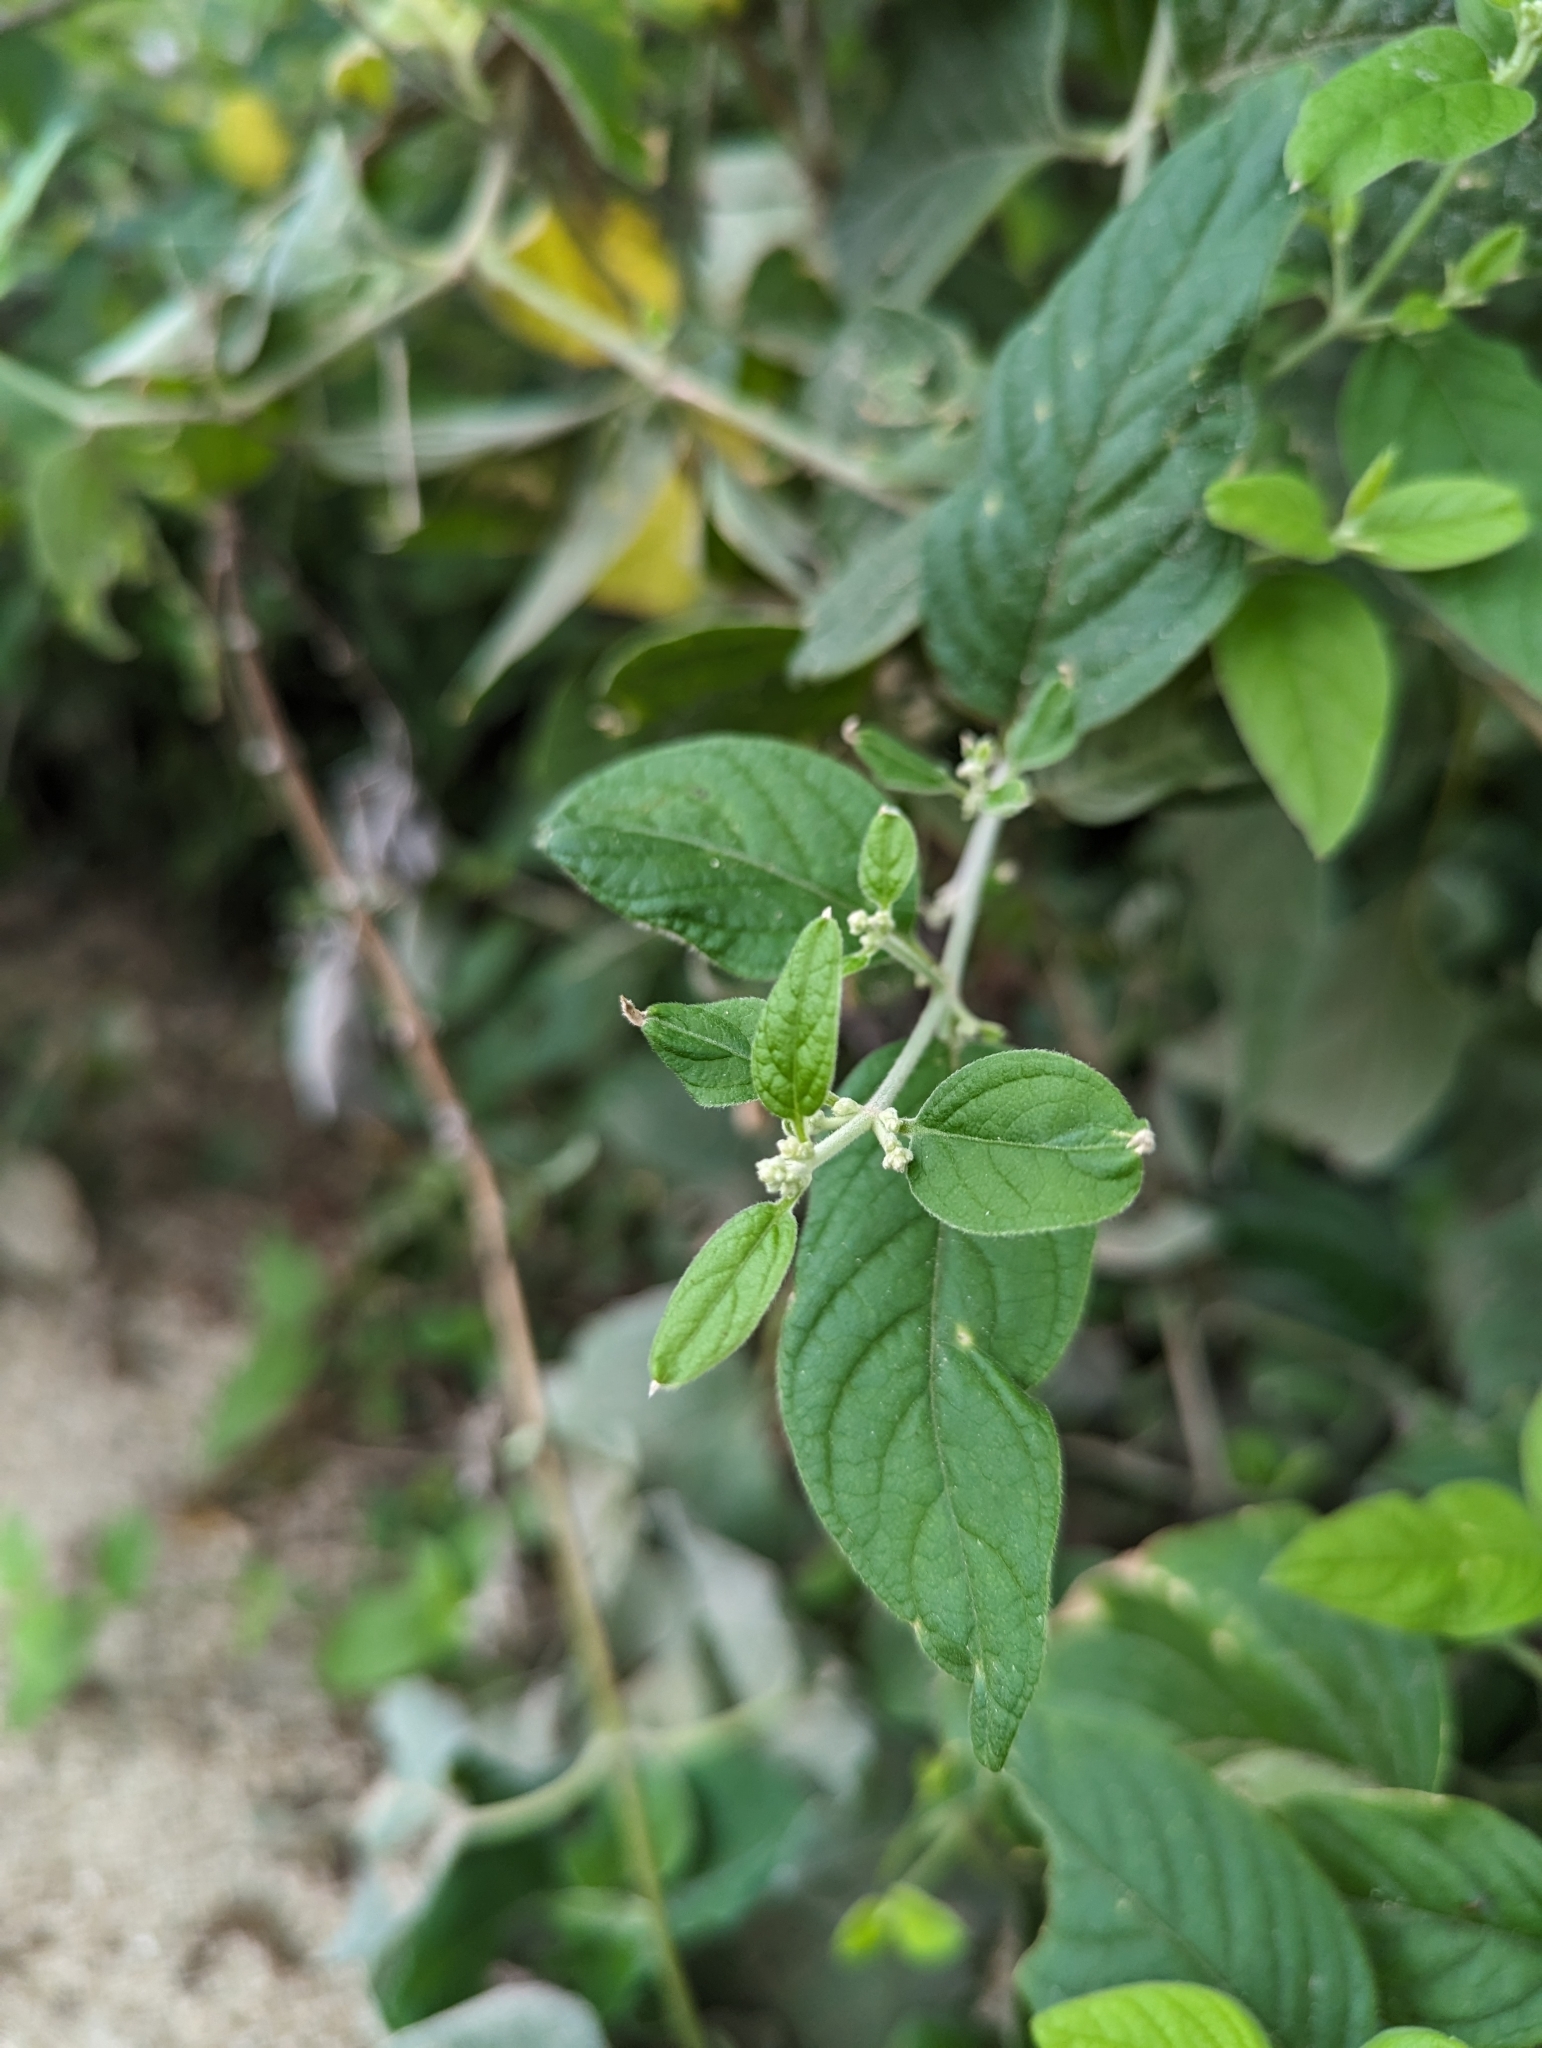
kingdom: Plantae
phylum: Tracheophyta
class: Magnoliopsida
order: Caryophyllales
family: Amaranthaceae
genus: Iresine
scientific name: Iresine latifolia
